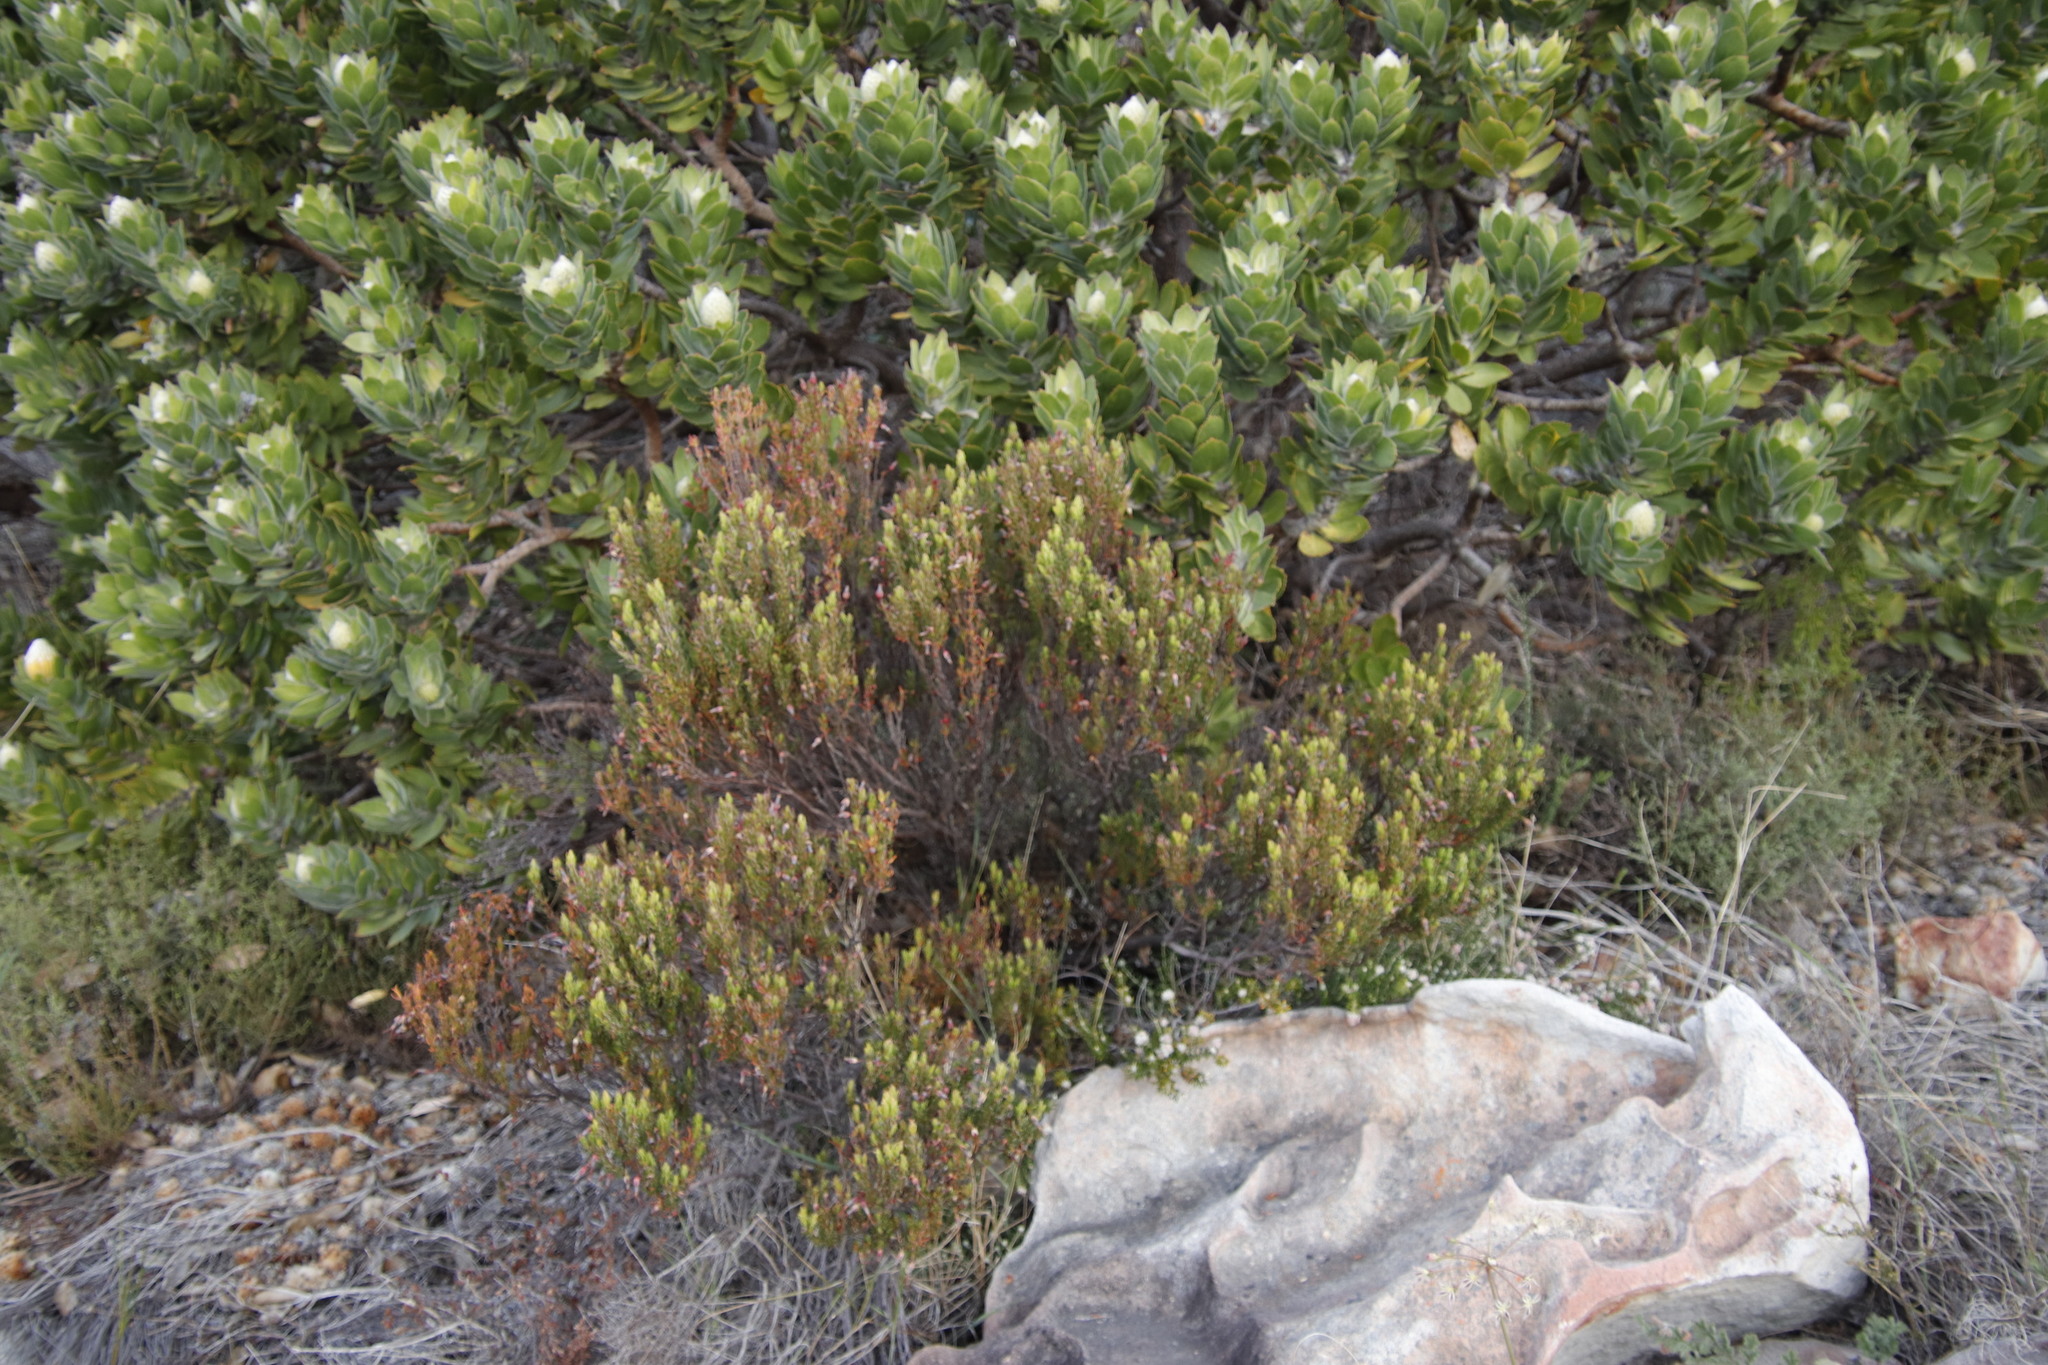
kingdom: Plantae
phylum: Tracheophyta
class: Magnoliopsida
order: Ericales
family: Ericaceae
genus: Erica
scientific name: Erica plukenetii
